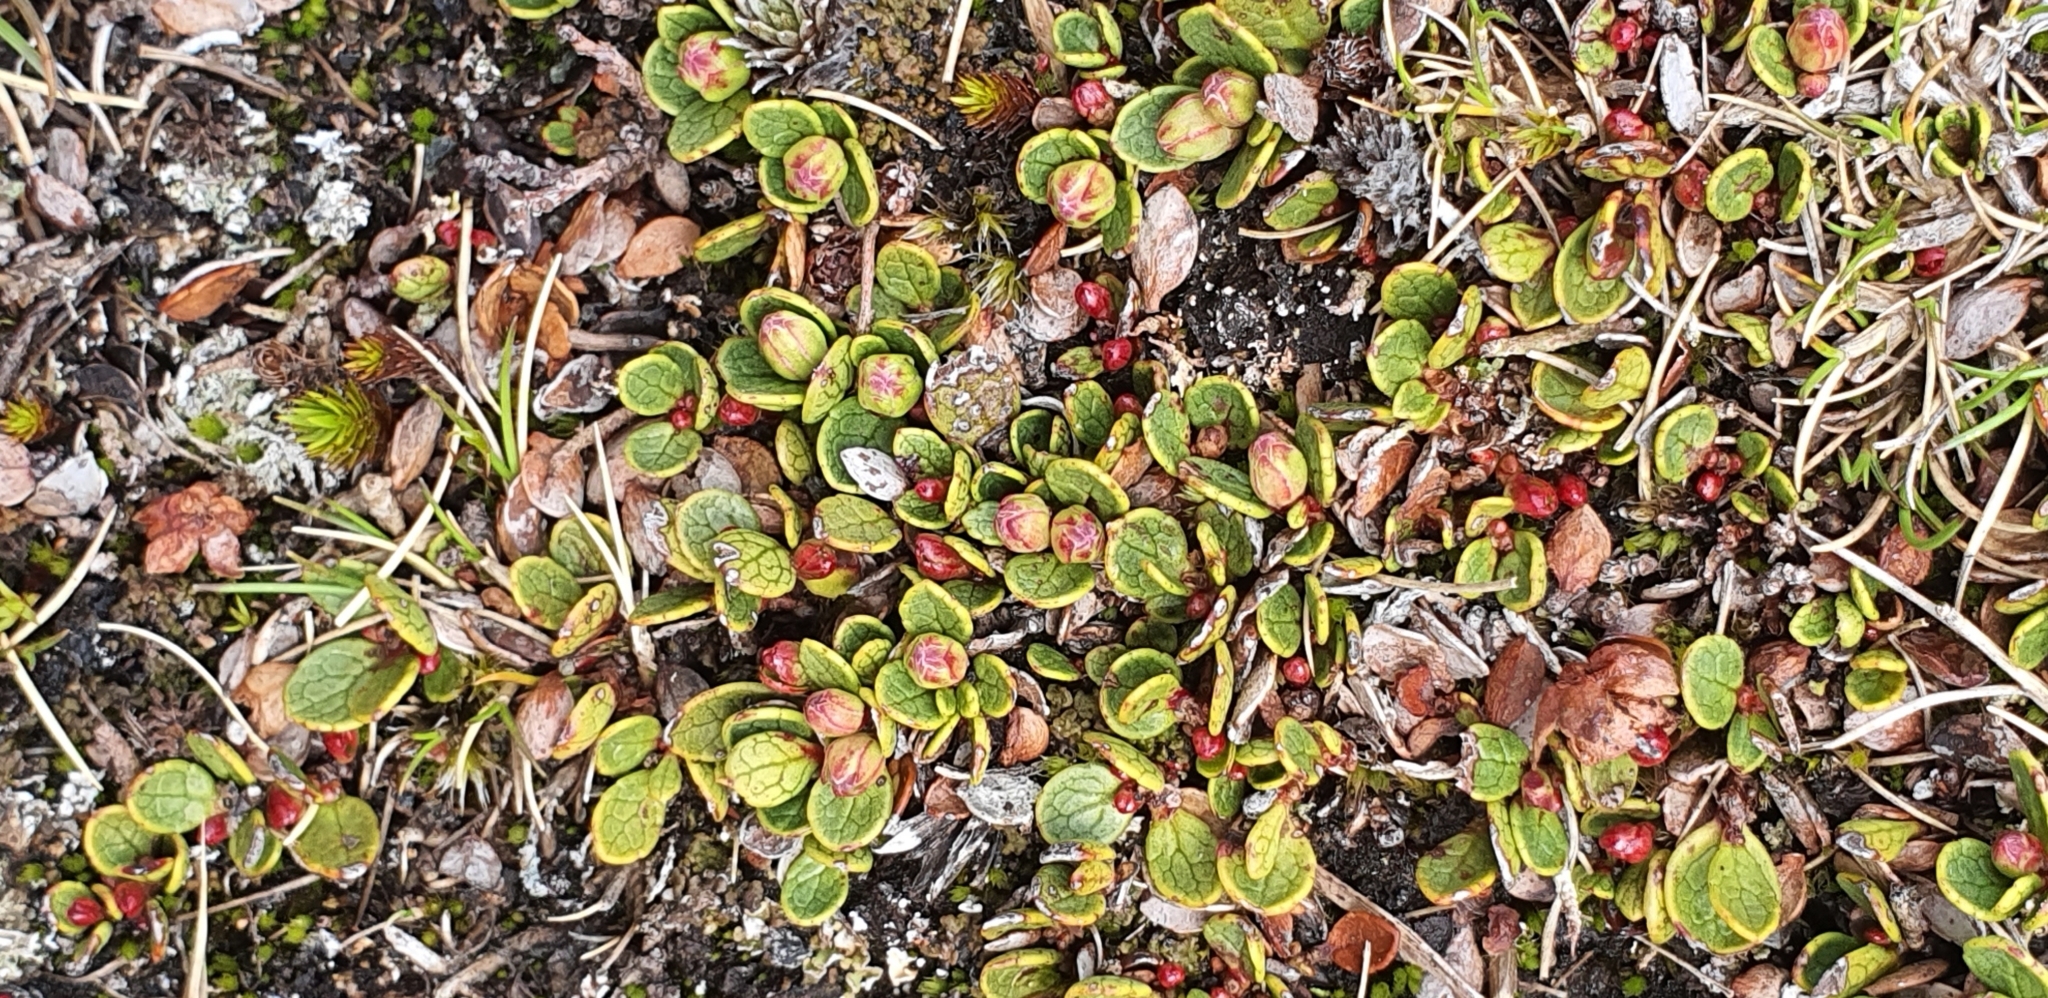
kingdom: Plantae
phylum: Tracheophyta
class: Magnoliopsida
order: Ericales
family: Ericaceae
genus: Gaultheria
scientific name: Gaultheria nubicola
